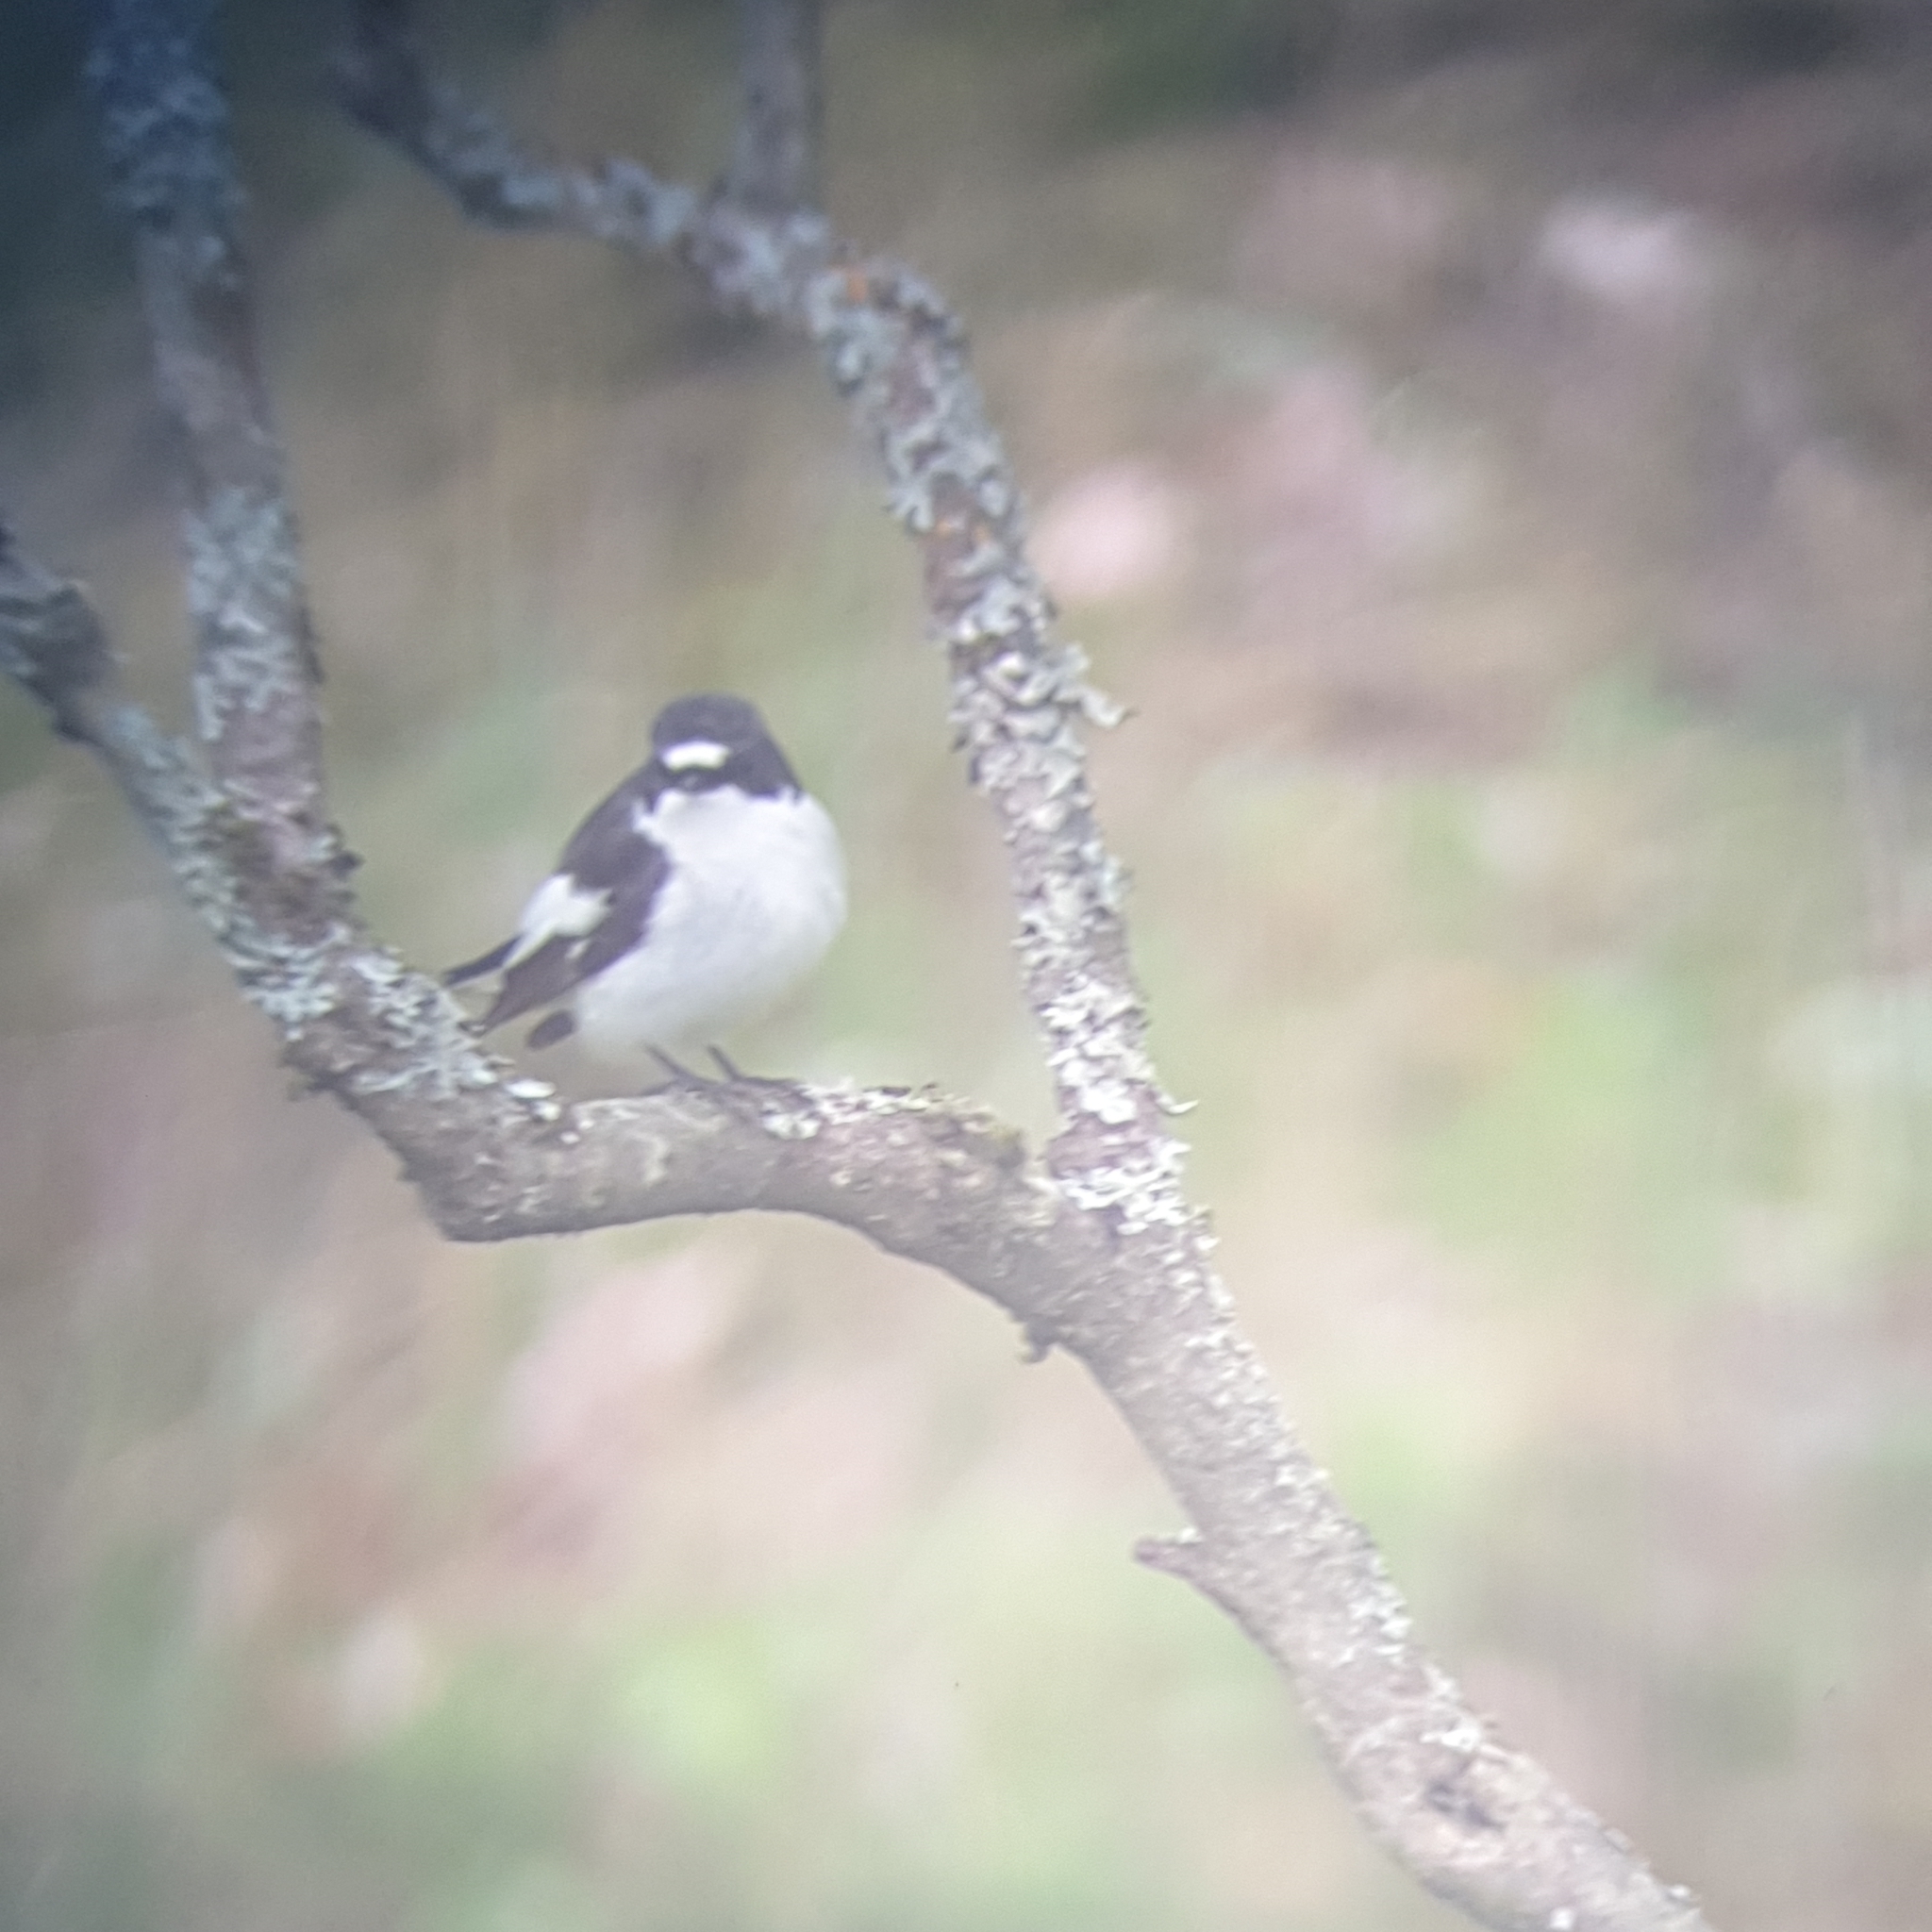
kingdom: Animalia
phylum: Chordata
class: Aves
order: Passeriformes
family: Muscicapidae
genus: Ficedula
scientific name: Ficedula hypoleuca
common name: European pied flycatcher
